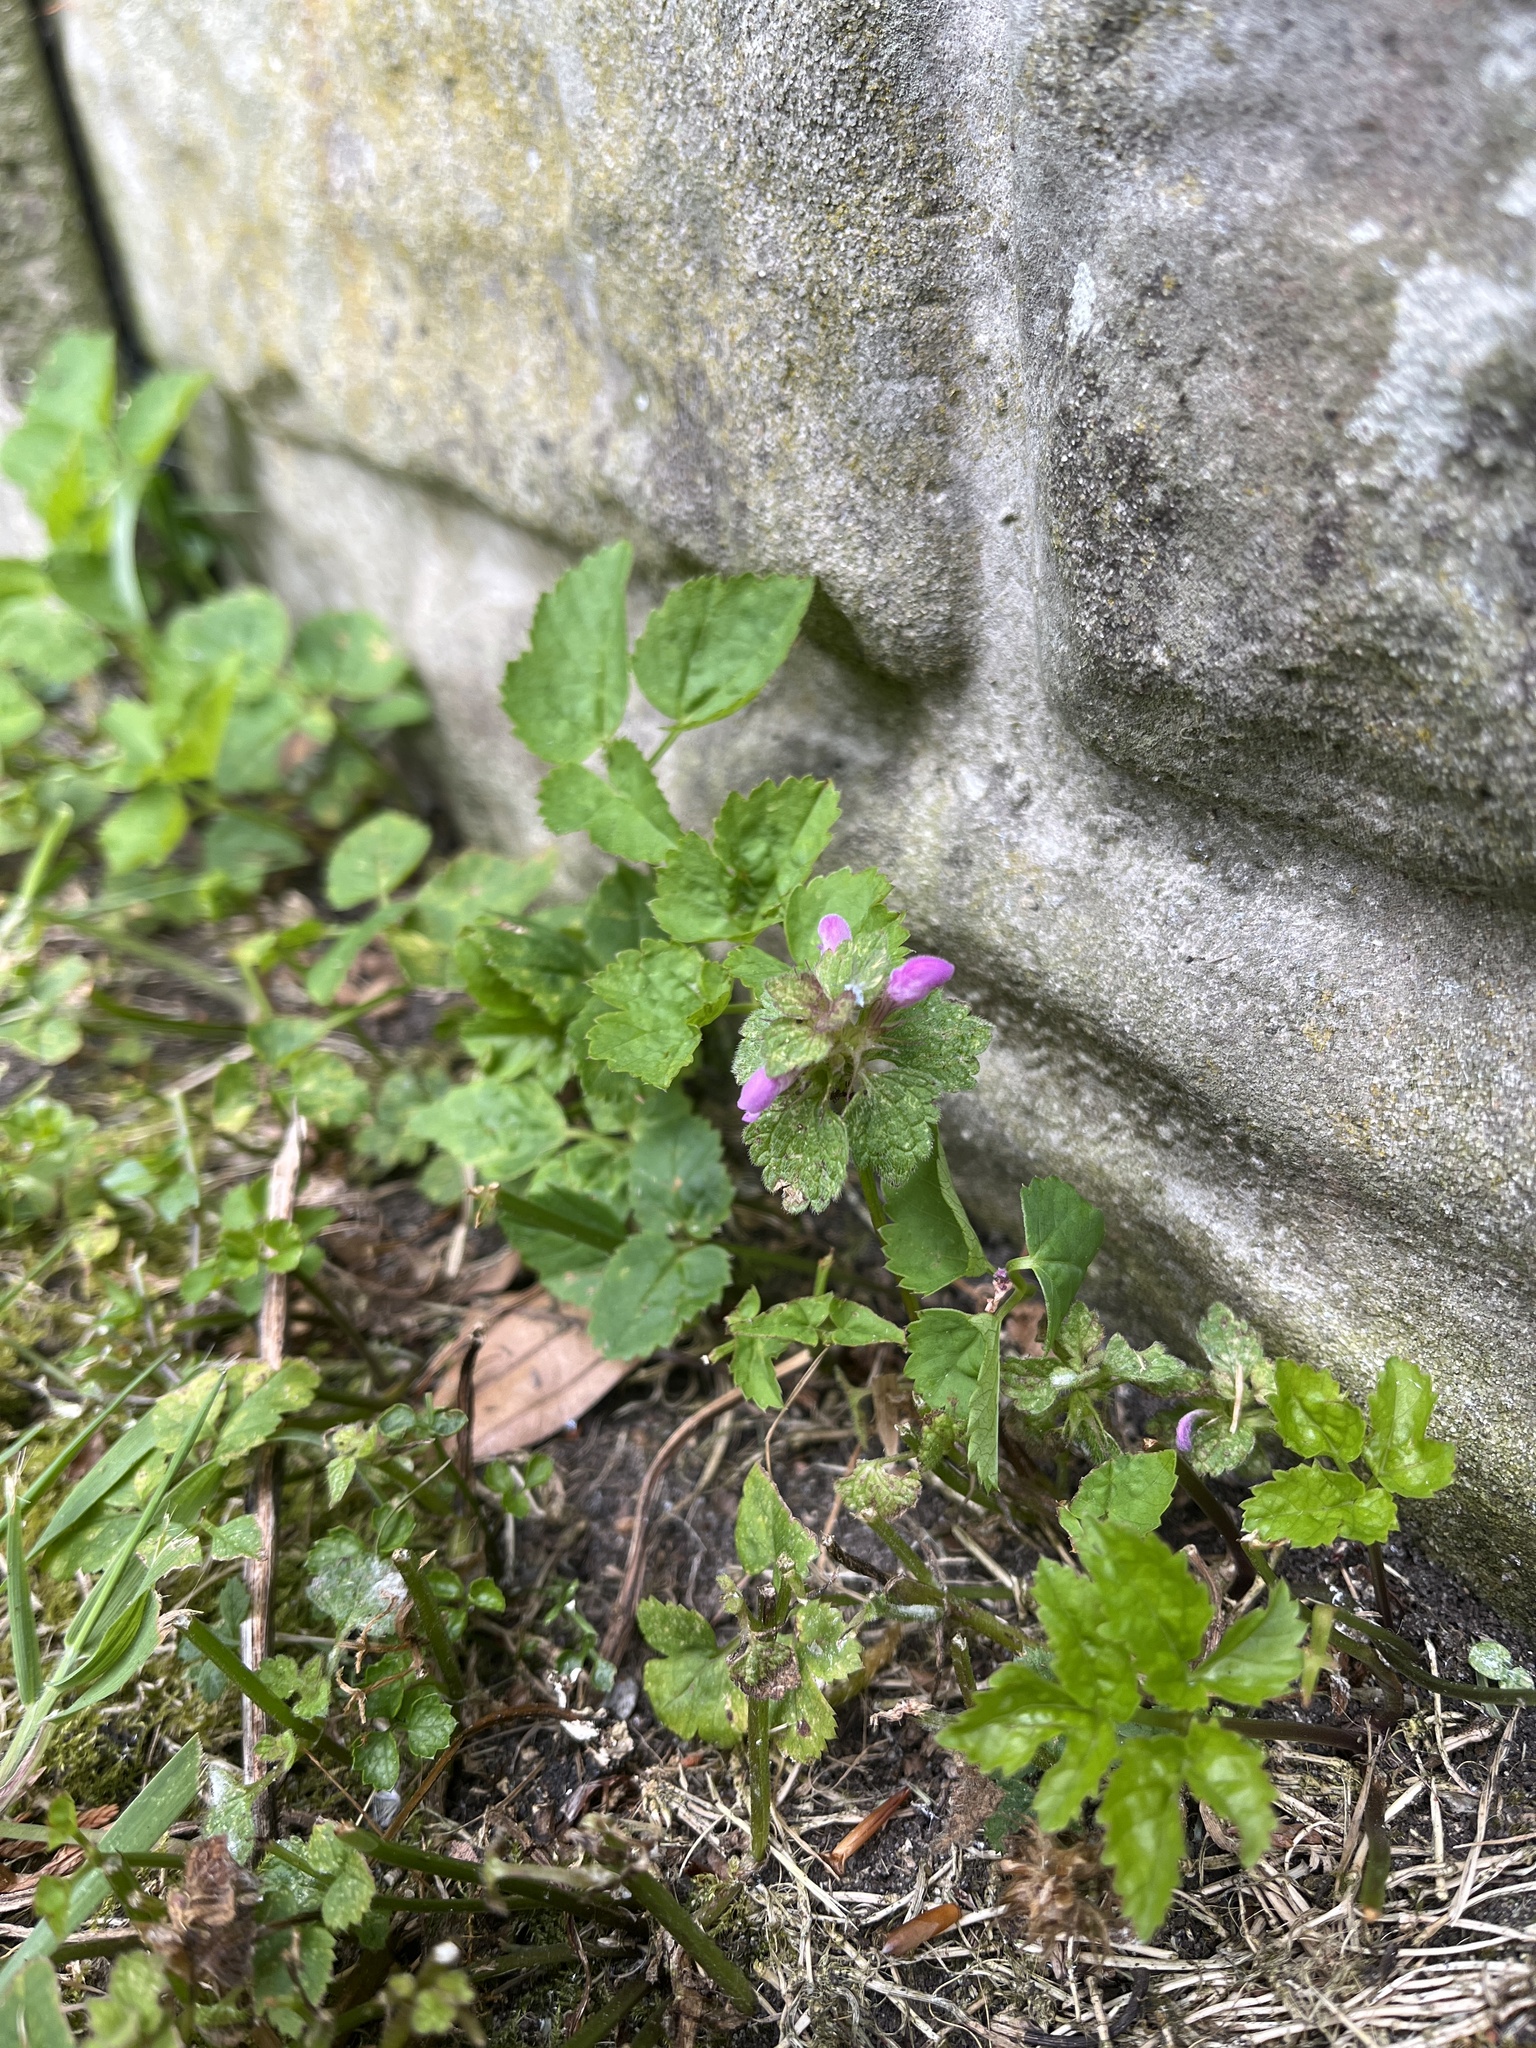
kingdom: Plantae
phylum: Tracheophyta
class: Magnoliopsida
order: Lamiales
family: Lamiaceae
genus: Lamium
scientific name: Lamium purpureum
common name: Red dead-nettle
